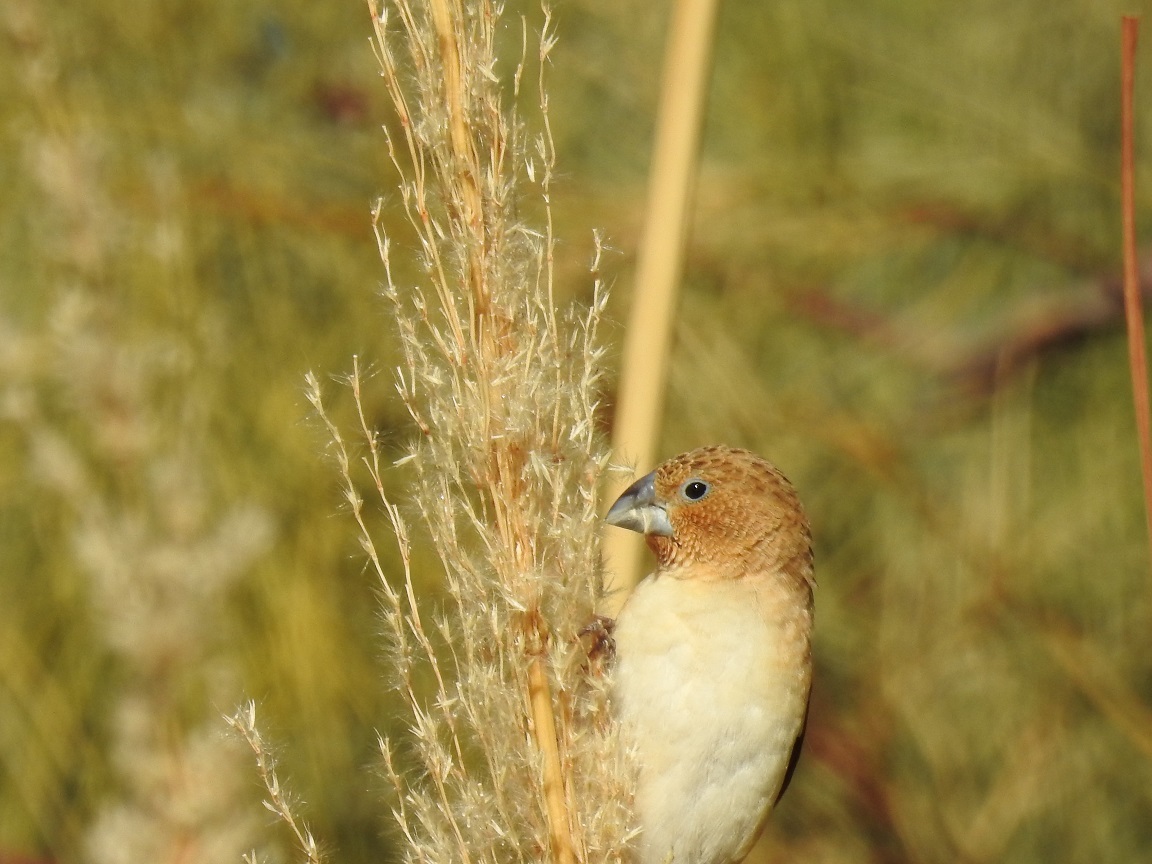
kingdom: Animalia
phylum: Chordata
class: Aves
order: Passeriformes
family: Estrildidae
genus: Euodice
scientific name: Euodice cantans
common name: African silverbill
